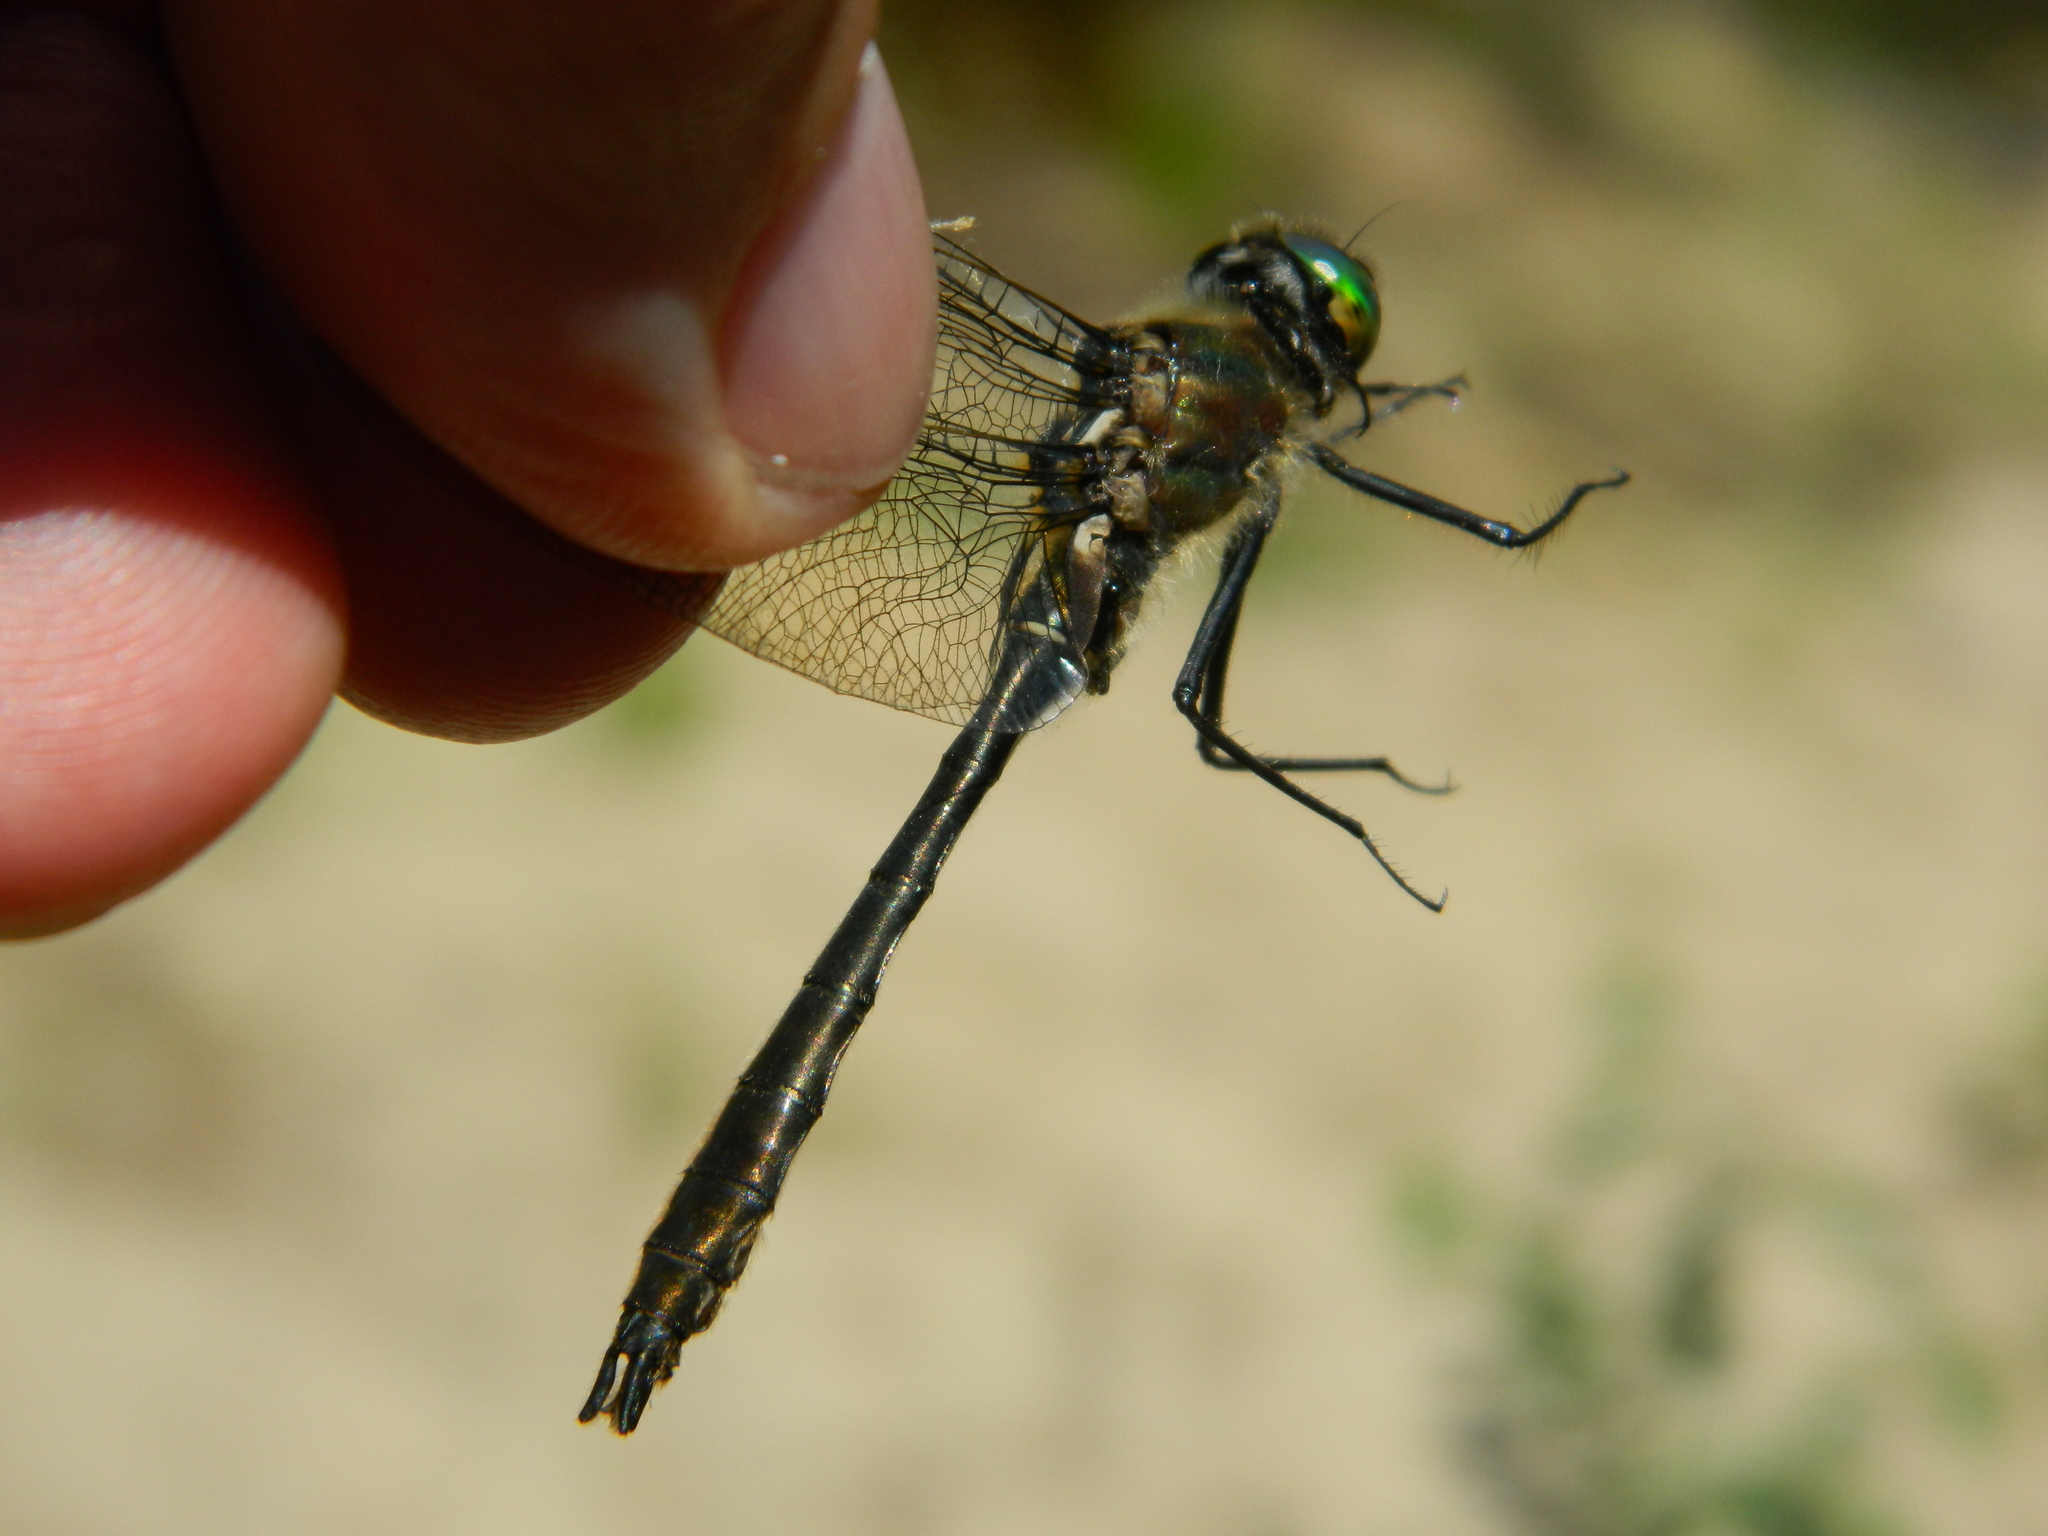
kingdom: Animalia
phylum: Arthropoda
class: Insecta
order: Odonata
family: Corduliidae
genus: Cordulia
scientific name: Cordulia shurtleffii
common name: American emerald
